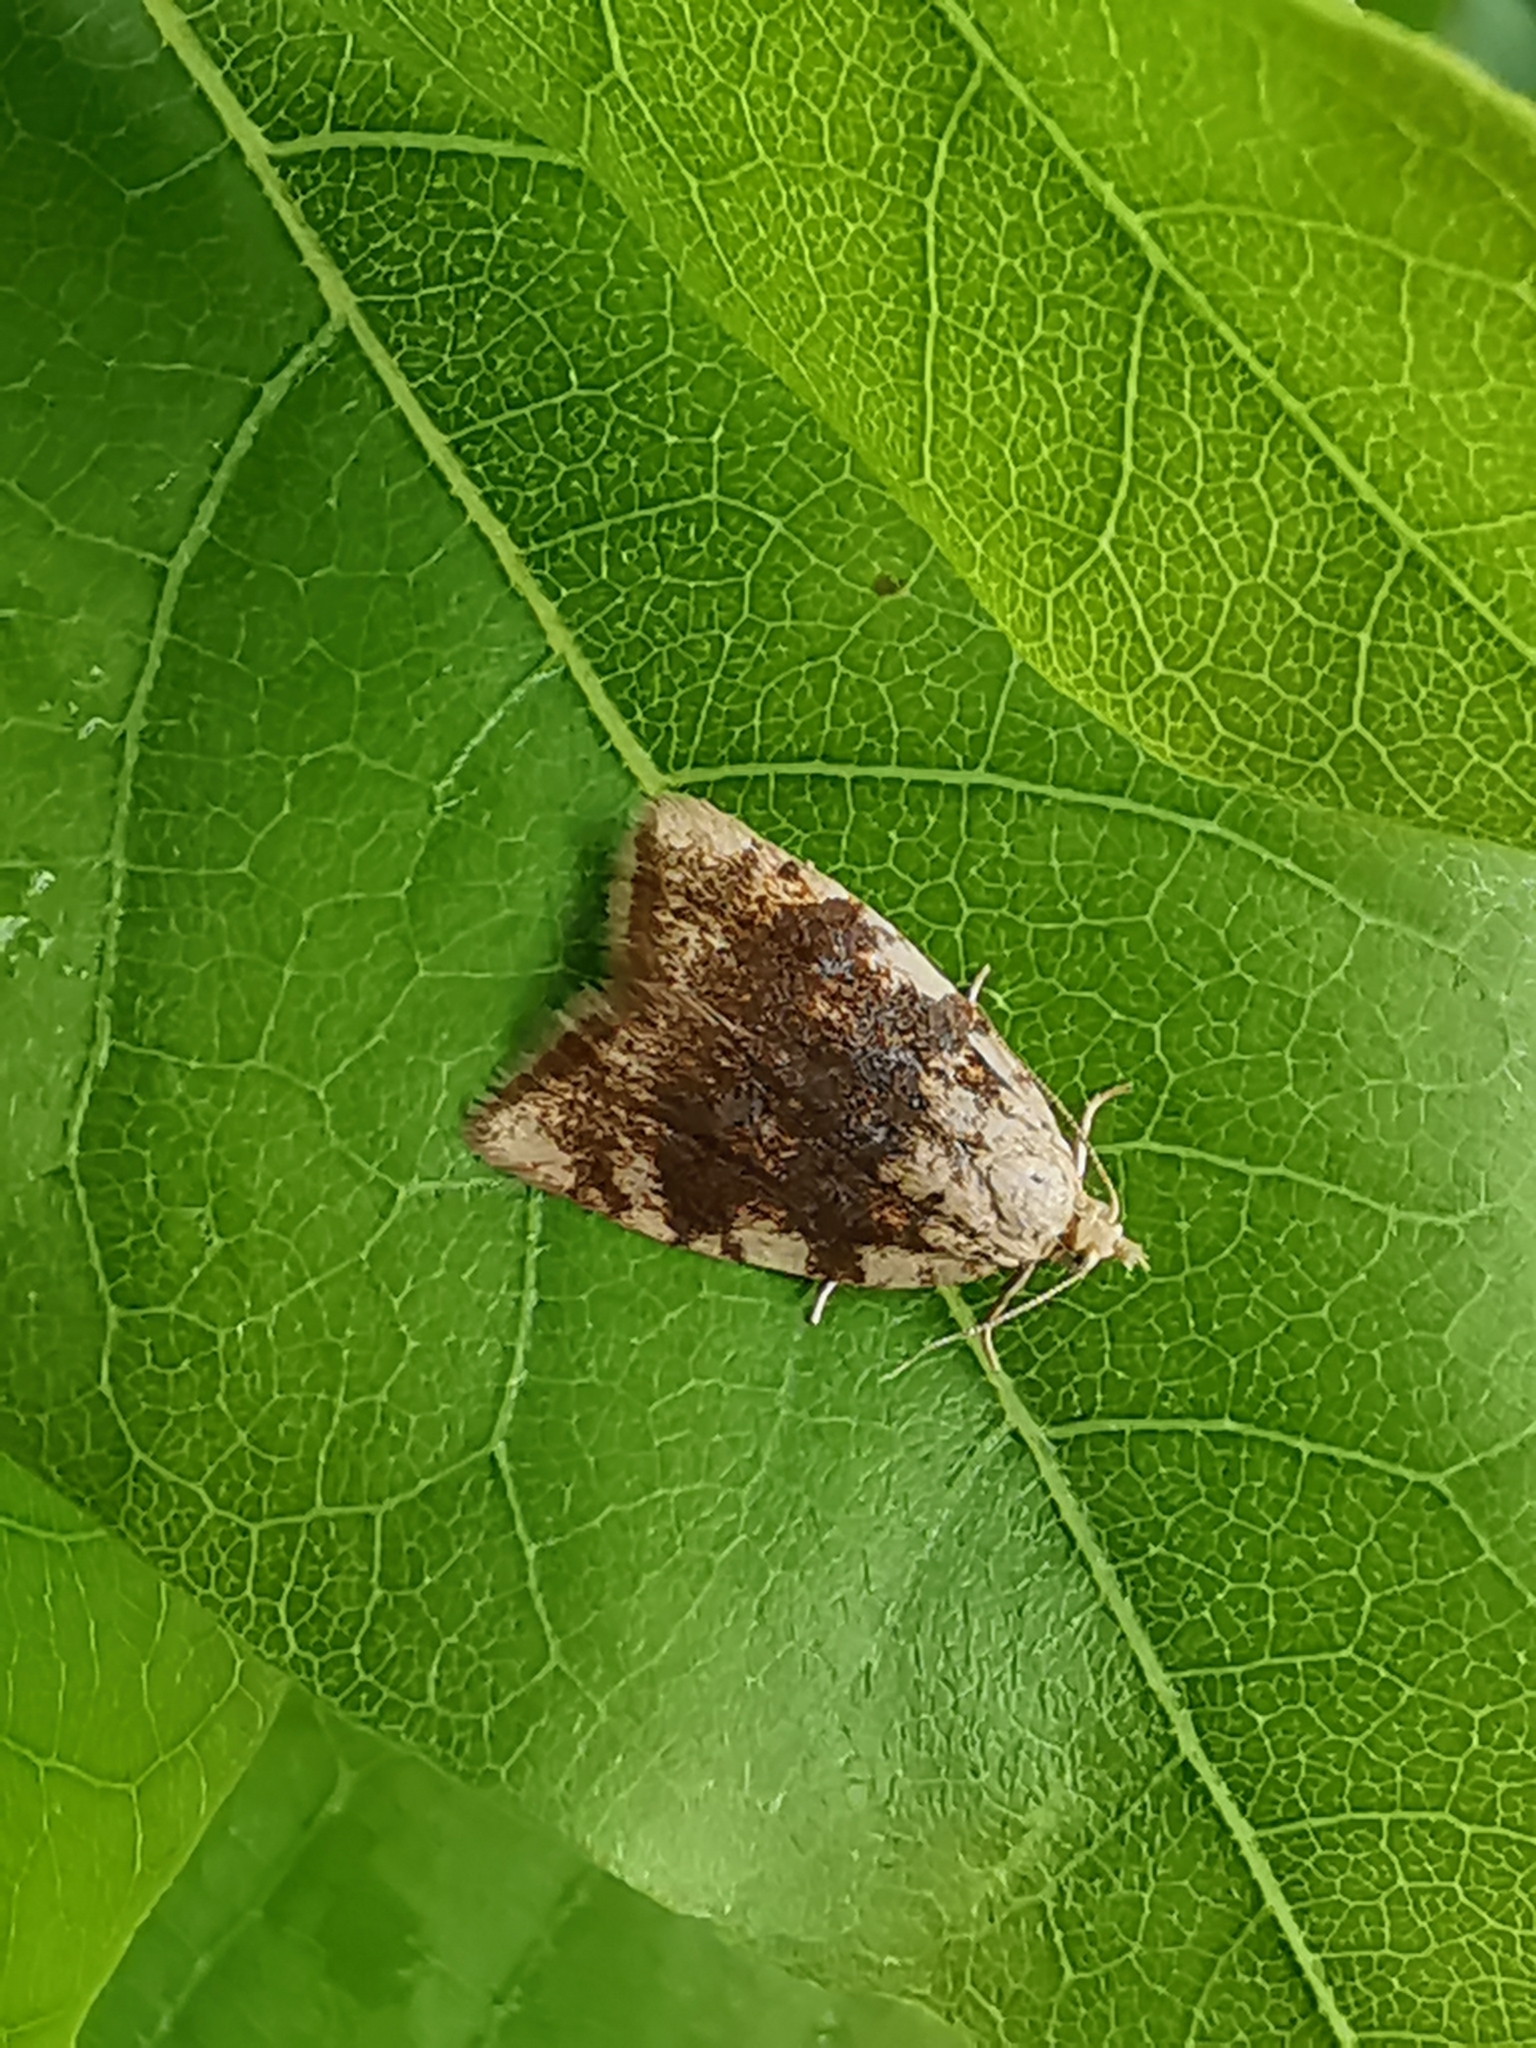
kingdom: Animalia
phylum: Arthropoda
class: Insecta
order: Lepidoptera
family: Tortricidae
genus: Aleimma
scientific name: Aleimma loeflingiana
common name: Yellow oak button
